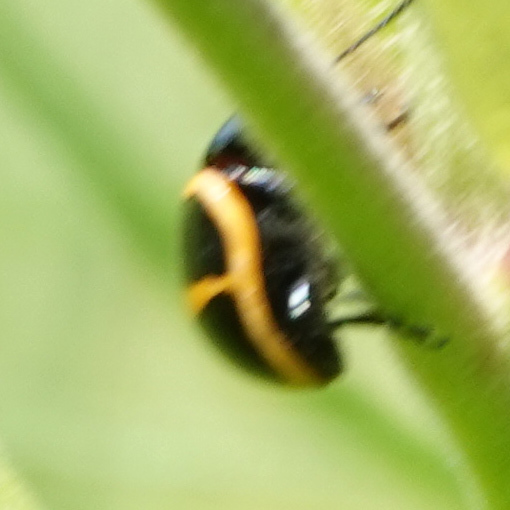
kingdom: Animalia
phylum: Arthropoda
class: Insecta
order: Coleoptera
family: Chrysomelidae
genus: Labidomera
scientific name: Labidomera clivicollis
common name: Swamp milkweed leaf beetle
